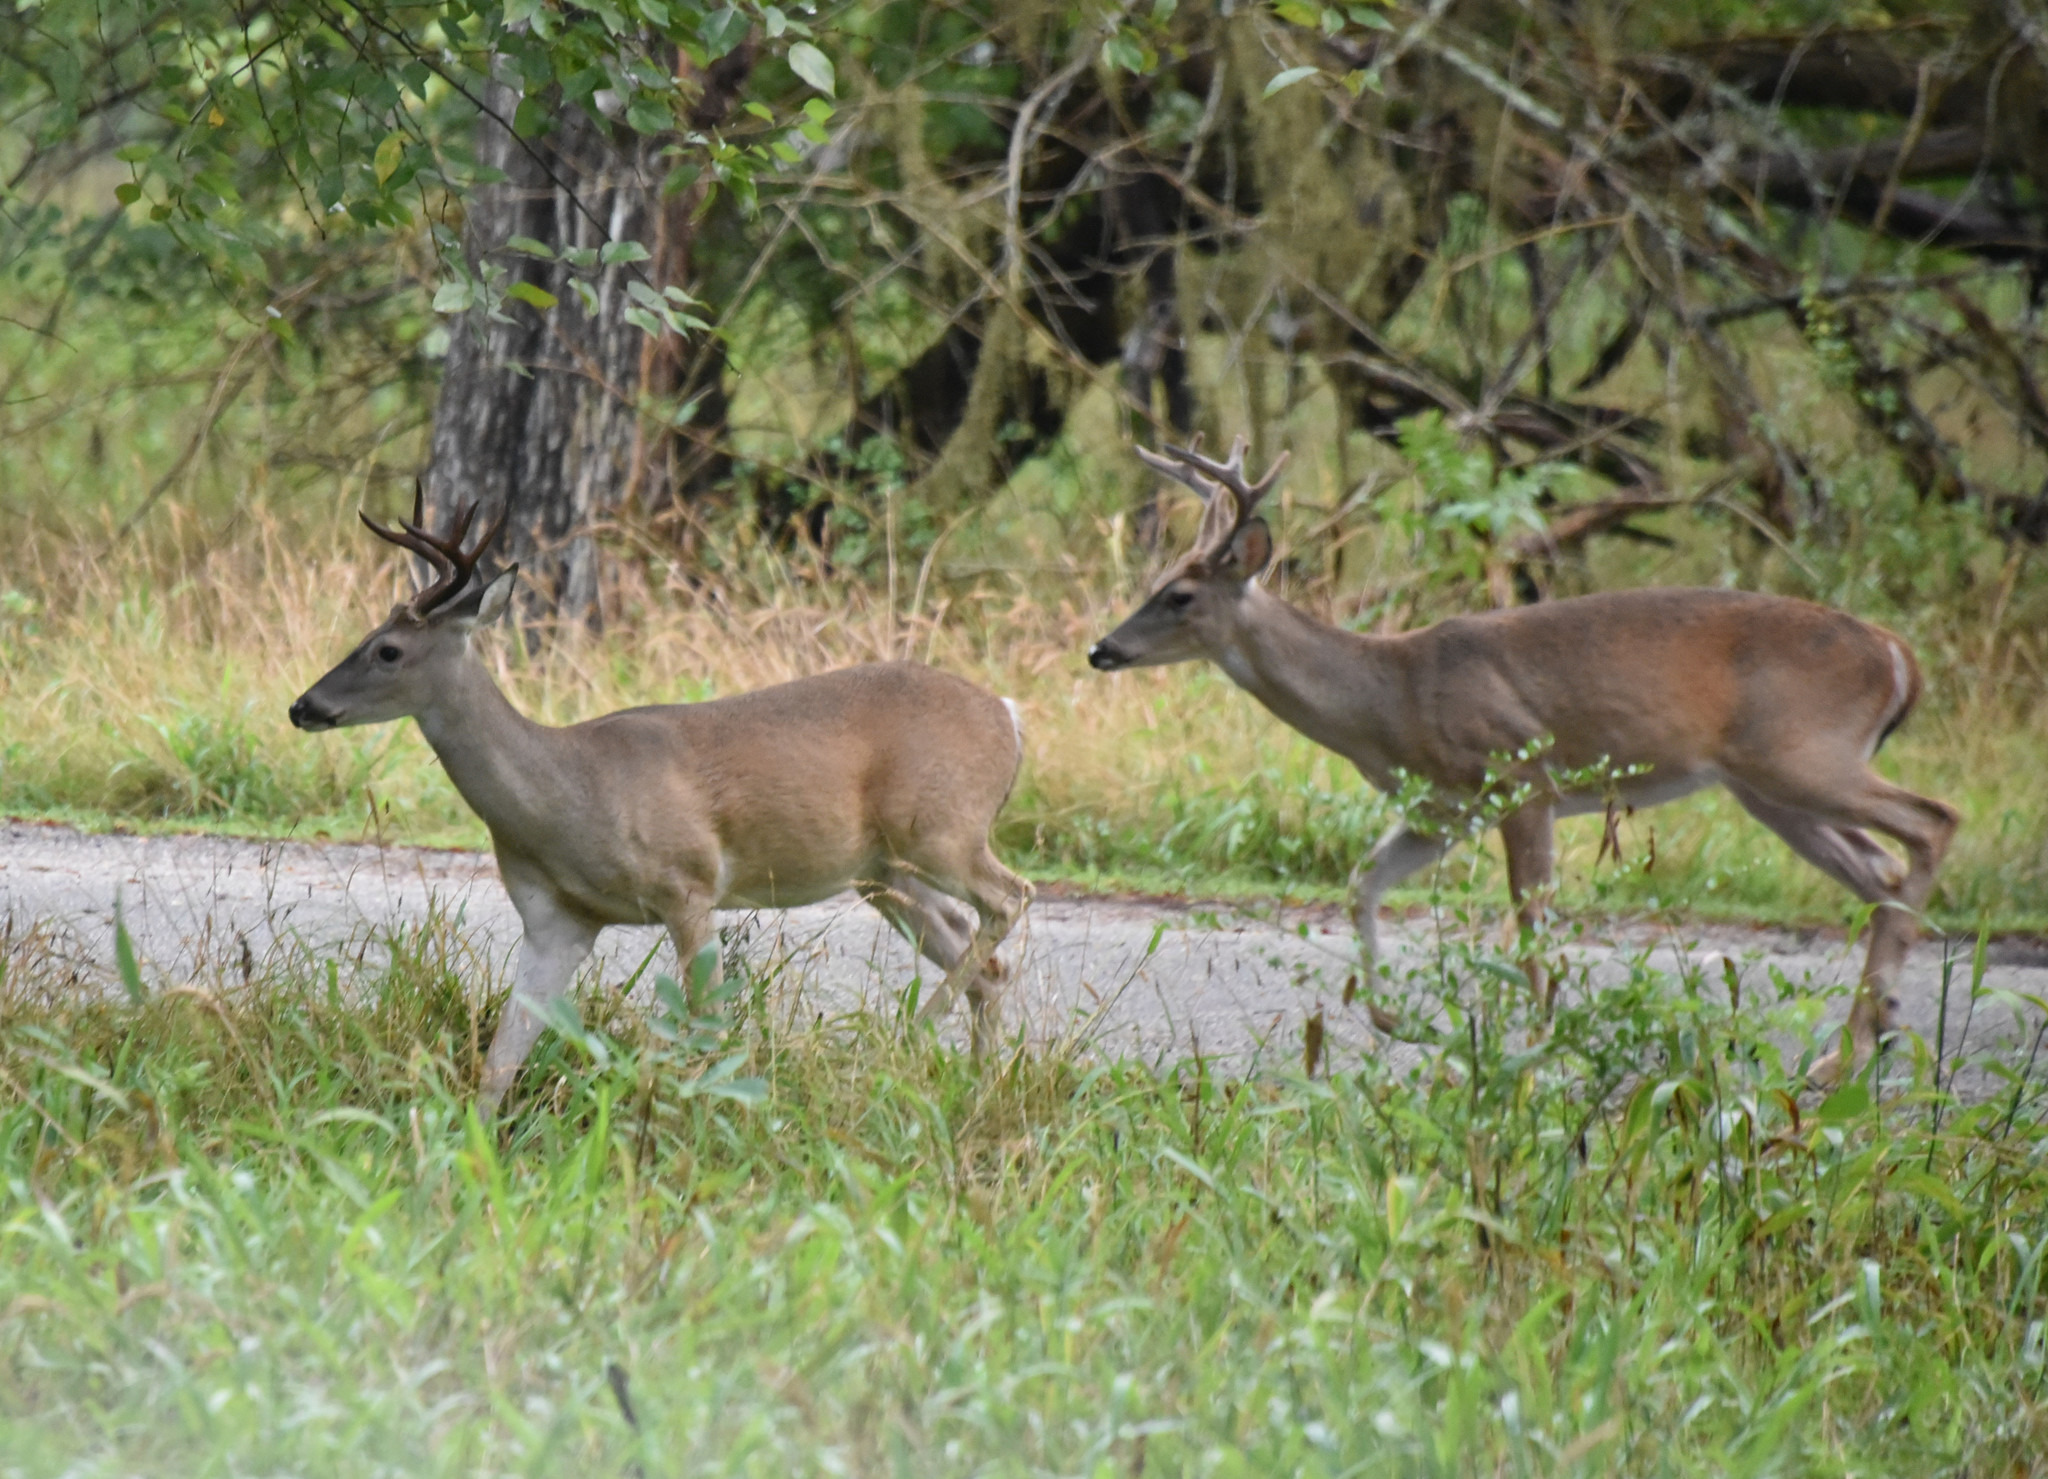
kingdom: Animalia
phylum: Chordata
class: Mammalia
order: Artiodactyla
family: Cervidae
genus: Odocoileus
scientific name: Odocoileus virginianus
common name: White-tailed deer
